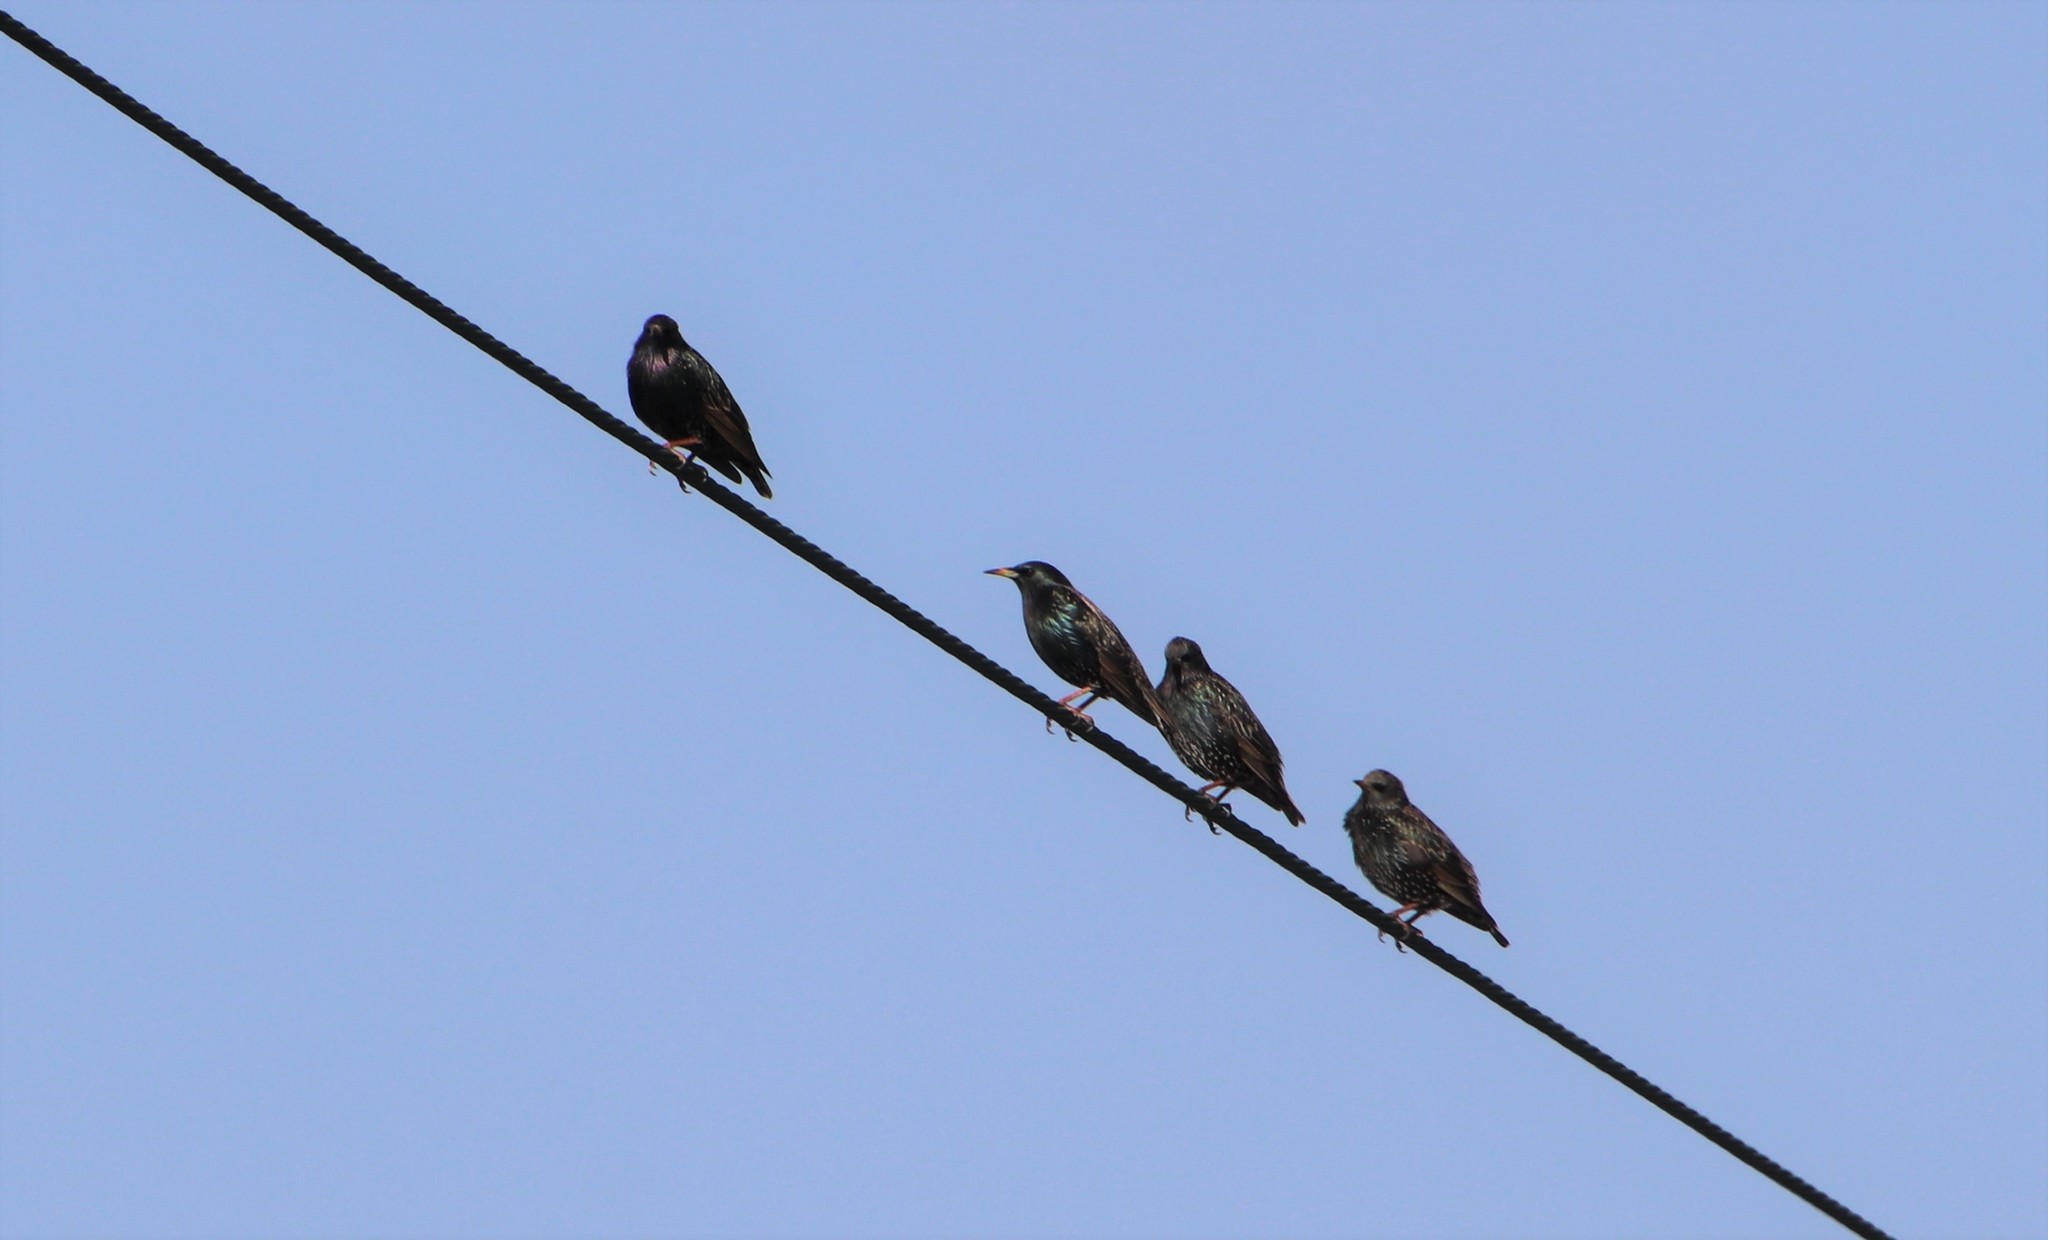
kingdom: Animalia
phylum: Chordata
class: Aves
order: Passeriformes
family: Sturnidae
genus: Sturnus
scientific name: Sturnus vulgaris
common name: Common starling
